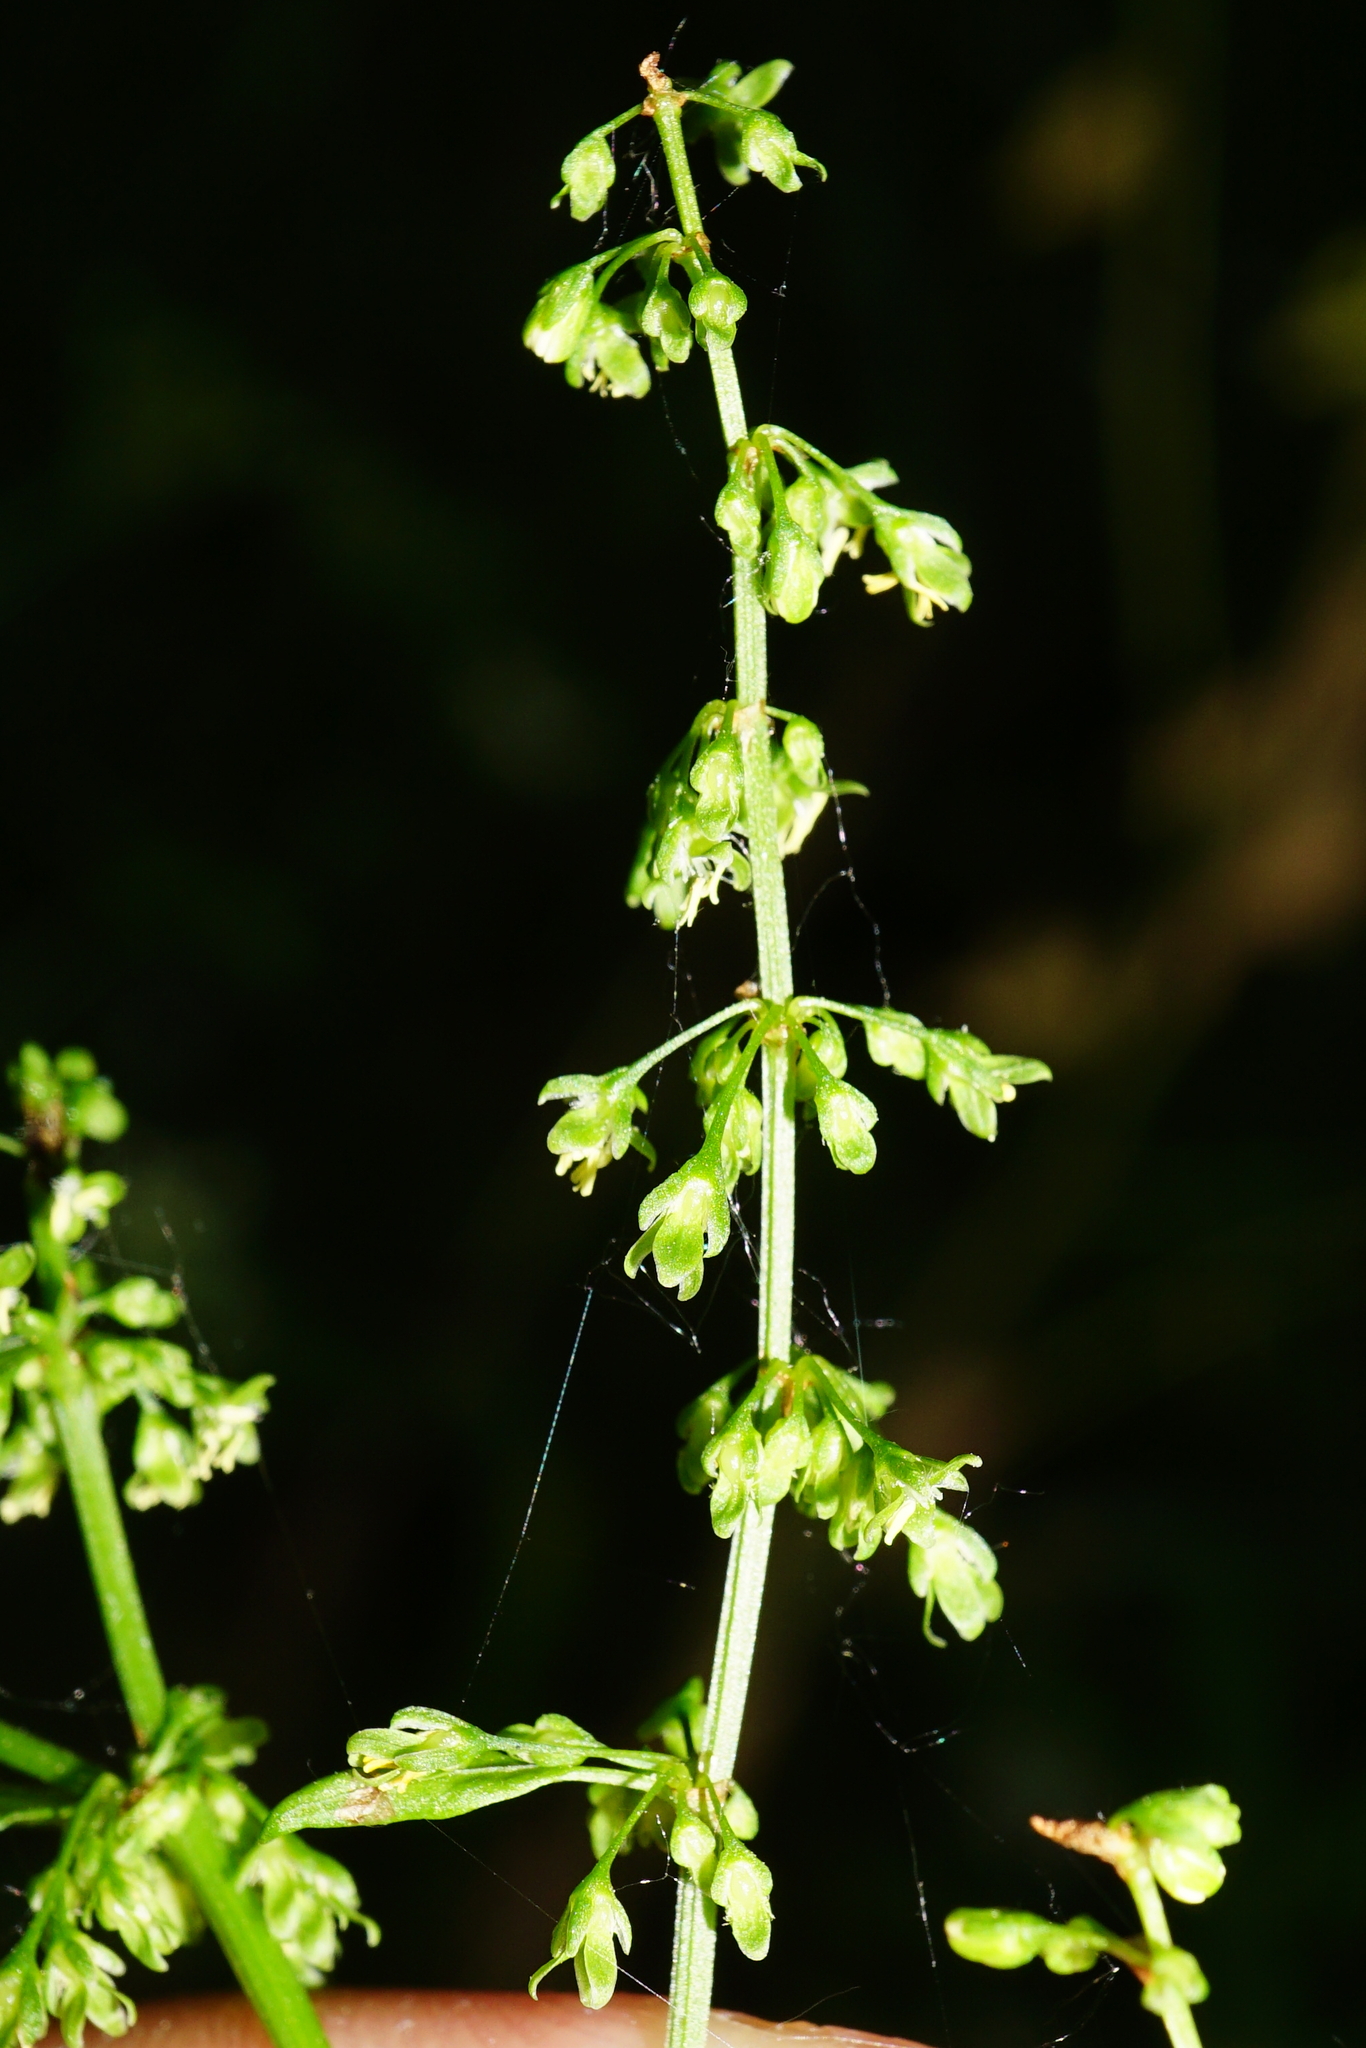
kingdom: Plantae
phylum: Tracheophyta
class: Magnoliopsida
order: Caryophyllales
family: Polygonaceae
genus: Rumex
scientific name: Rumex sanguineus
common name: Wood dock
